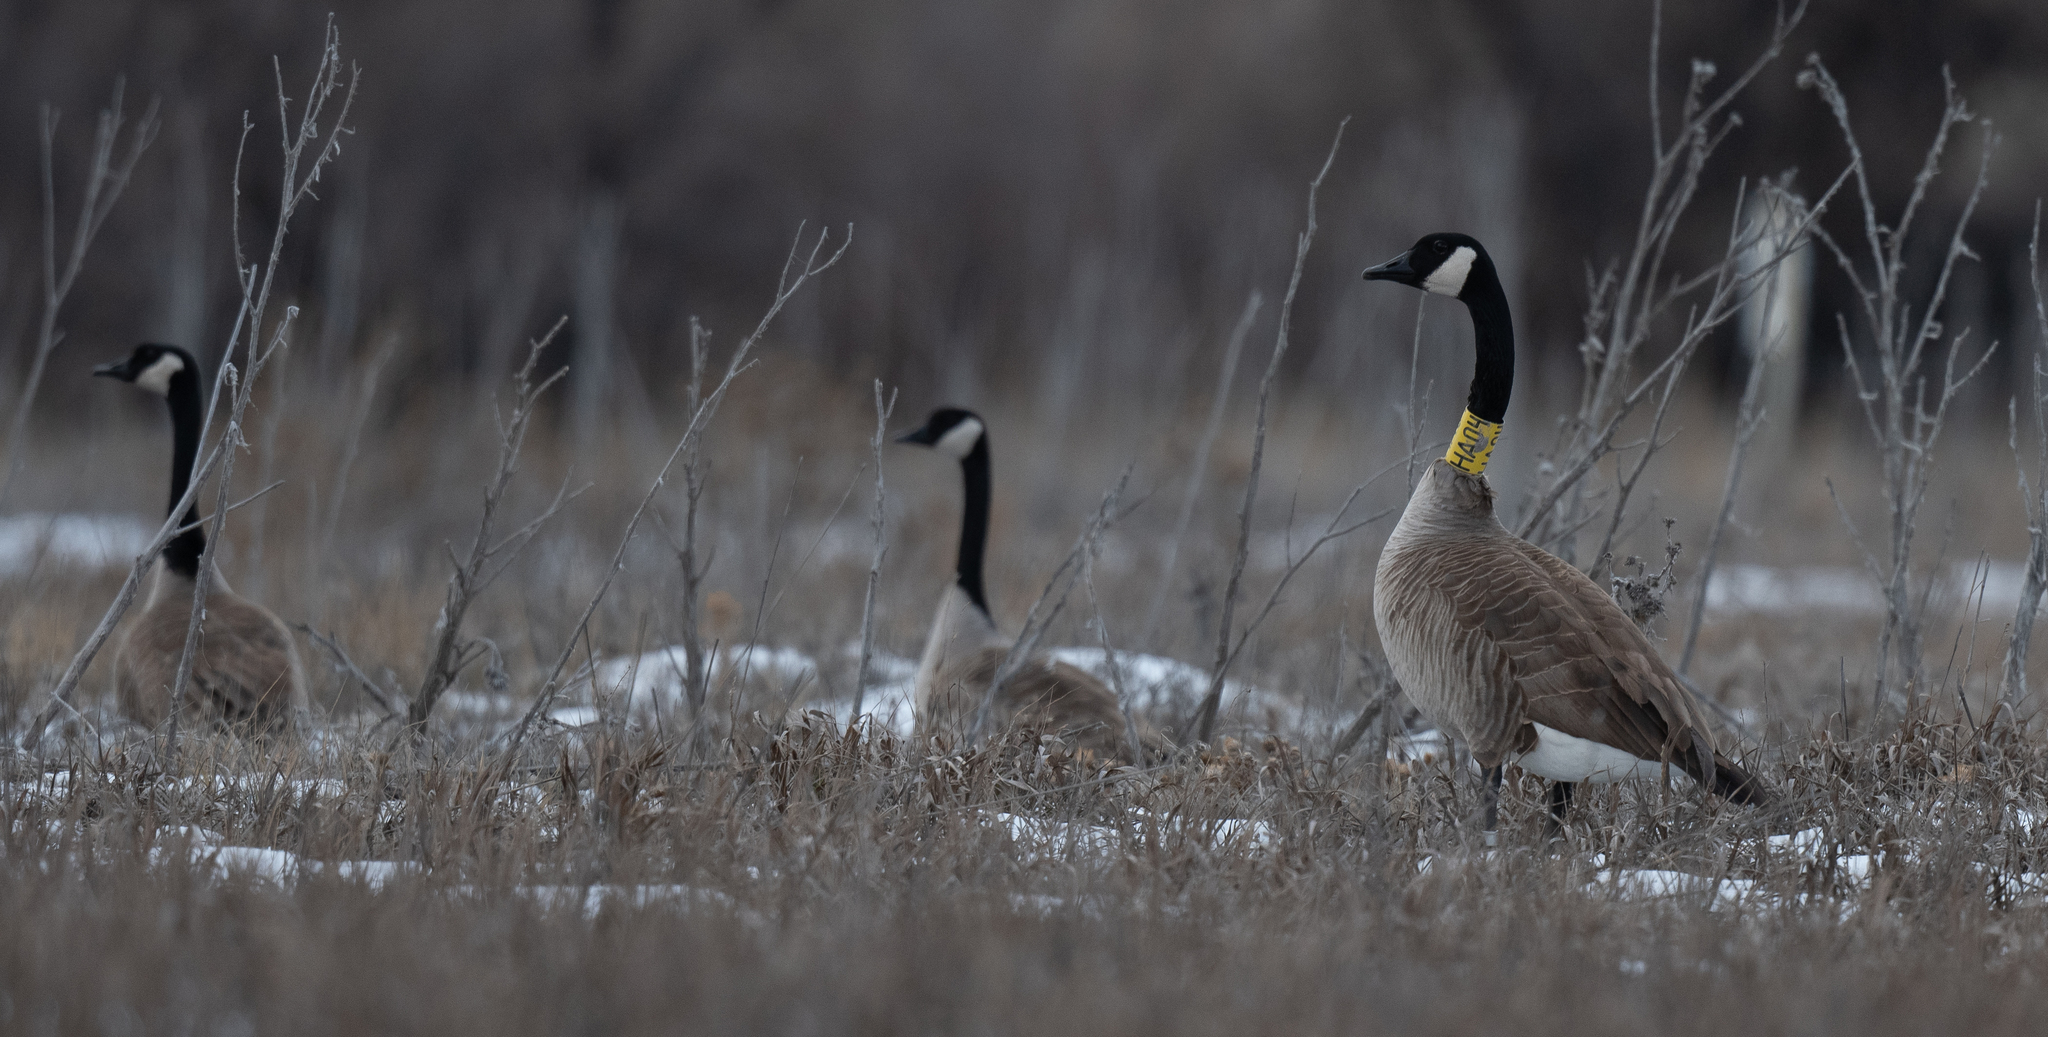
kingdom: Animalia
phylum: Chordata
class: Aves
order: Anseriformes
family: Anatidae
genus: Branta
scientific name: Branta canadensis
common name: Canada goose
